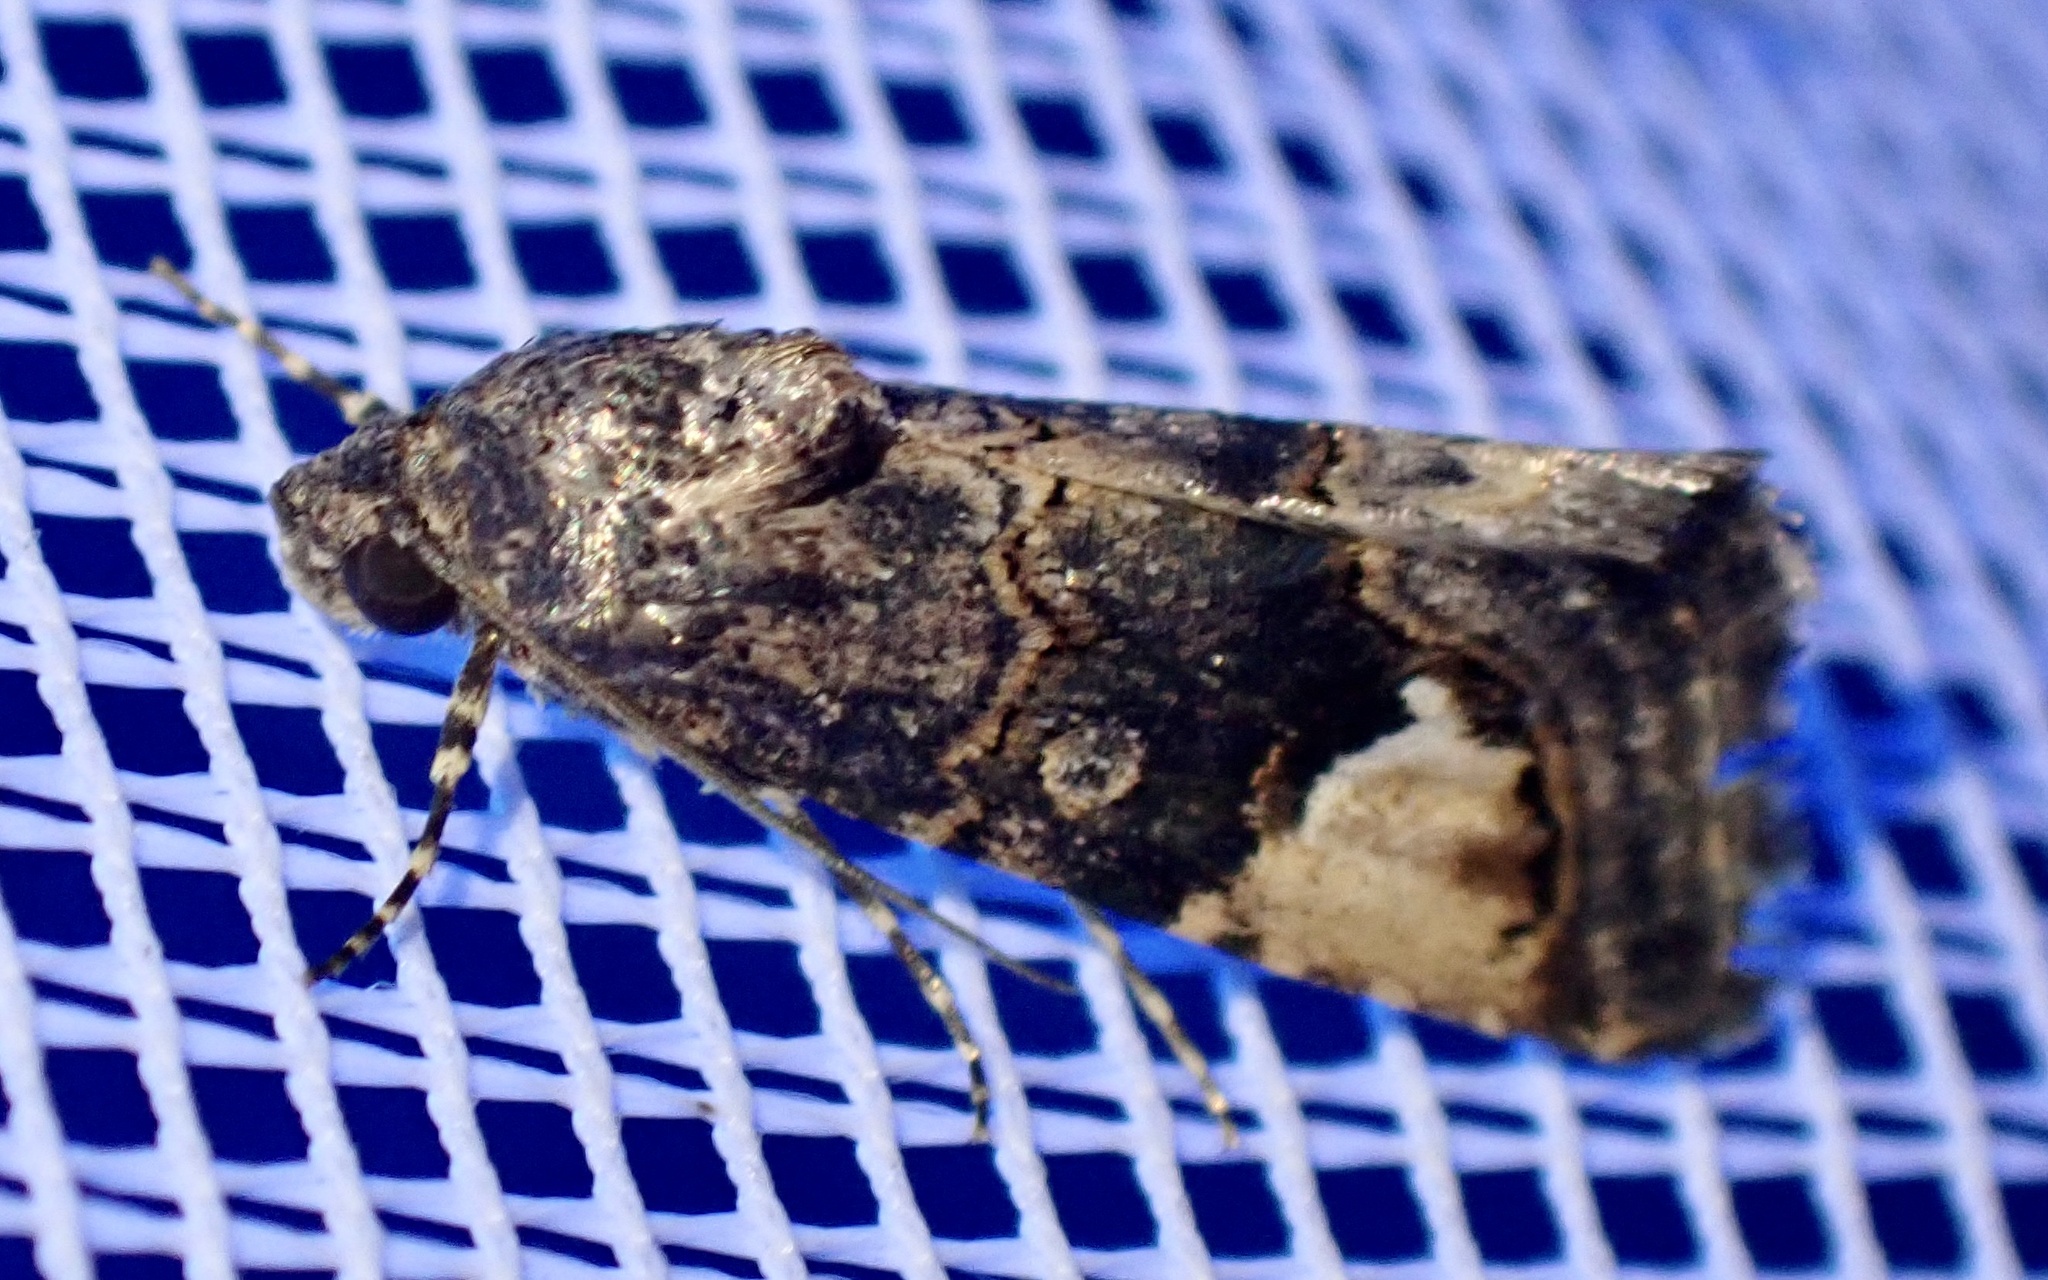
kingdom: Animalia
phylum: Arthropoda
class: Insecta
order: Lepidoptera
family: Erebidae
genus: Epharmottomena
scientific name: Epharmottomena eremophila
